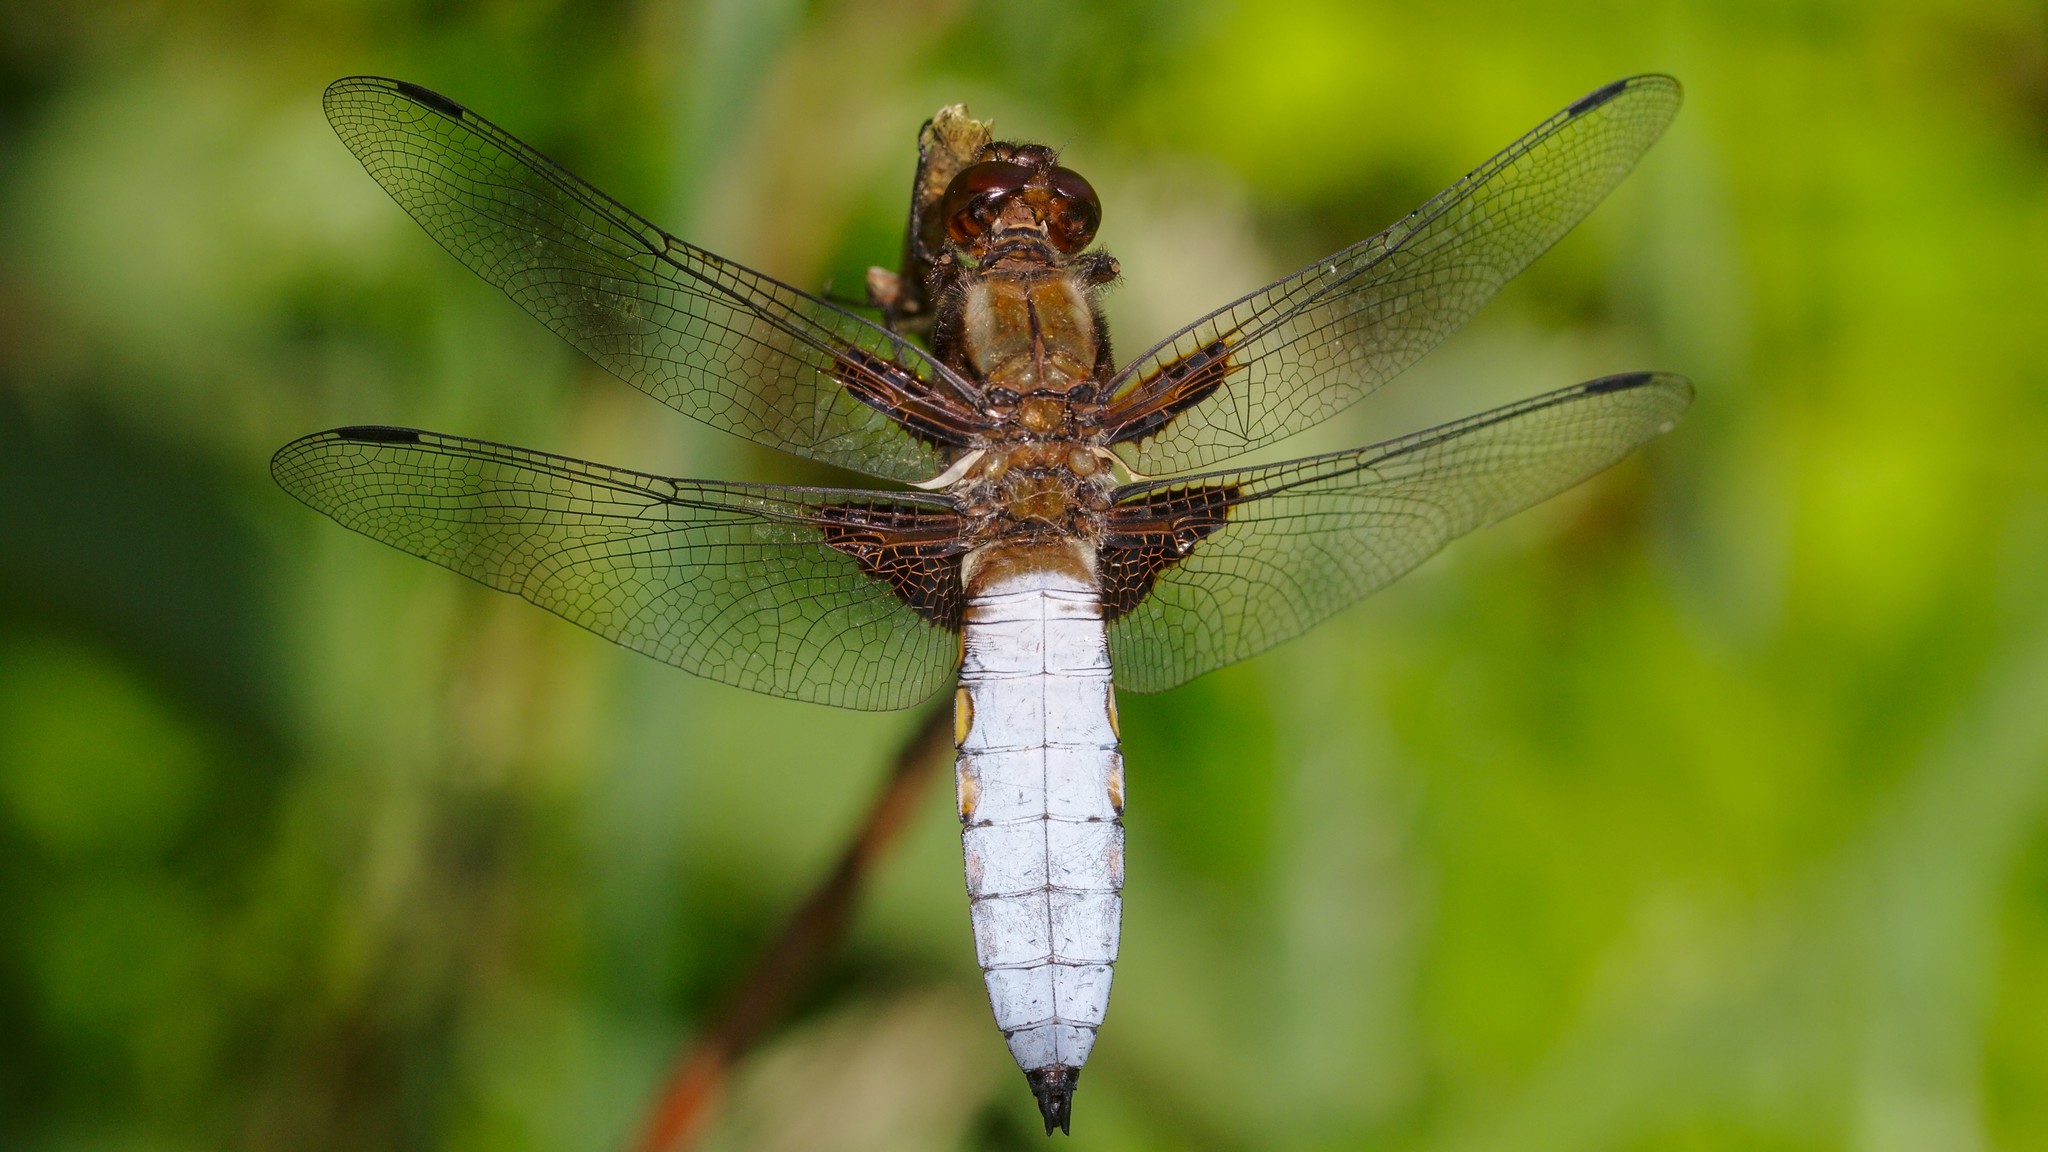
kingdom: Animalia
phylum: Arthropoda
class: Insecta
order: Odonata
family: Libellulidae
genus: Libellula
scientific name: Libellula depressa
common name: Broad-bodied chaser
